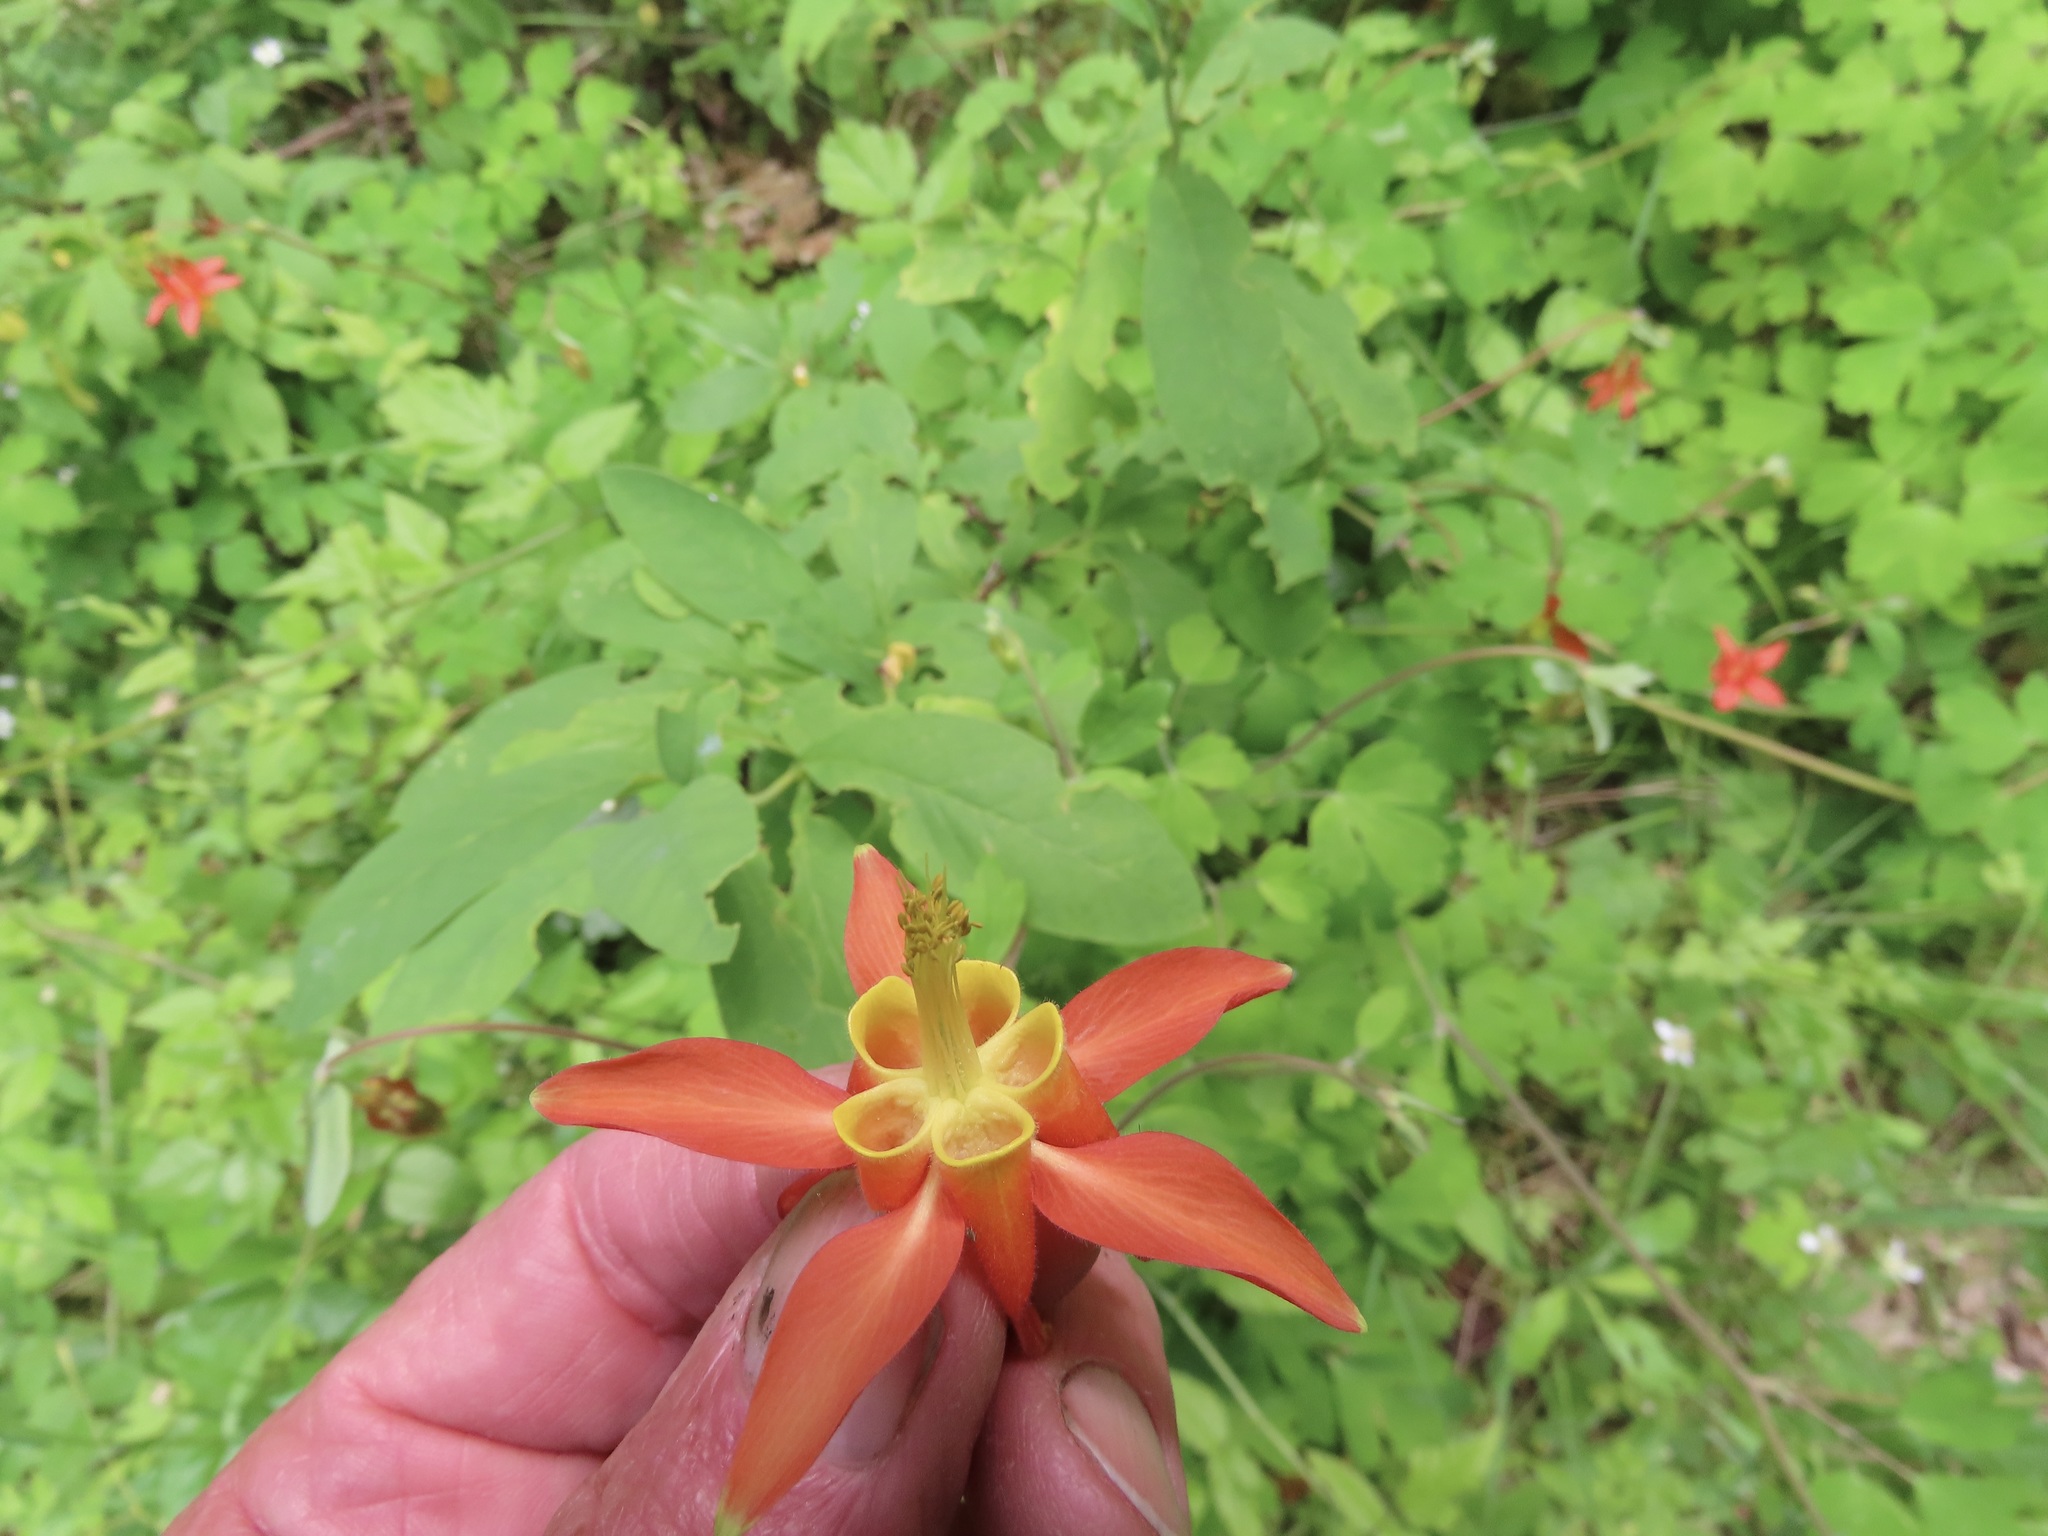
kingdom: Plantae
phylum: Tracheophyta
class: Magnoliopsida
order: Ranunculales
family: Ranunculaceae
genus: Aquilegia
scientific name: Aquilegia formosa
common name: Sitka columbine
